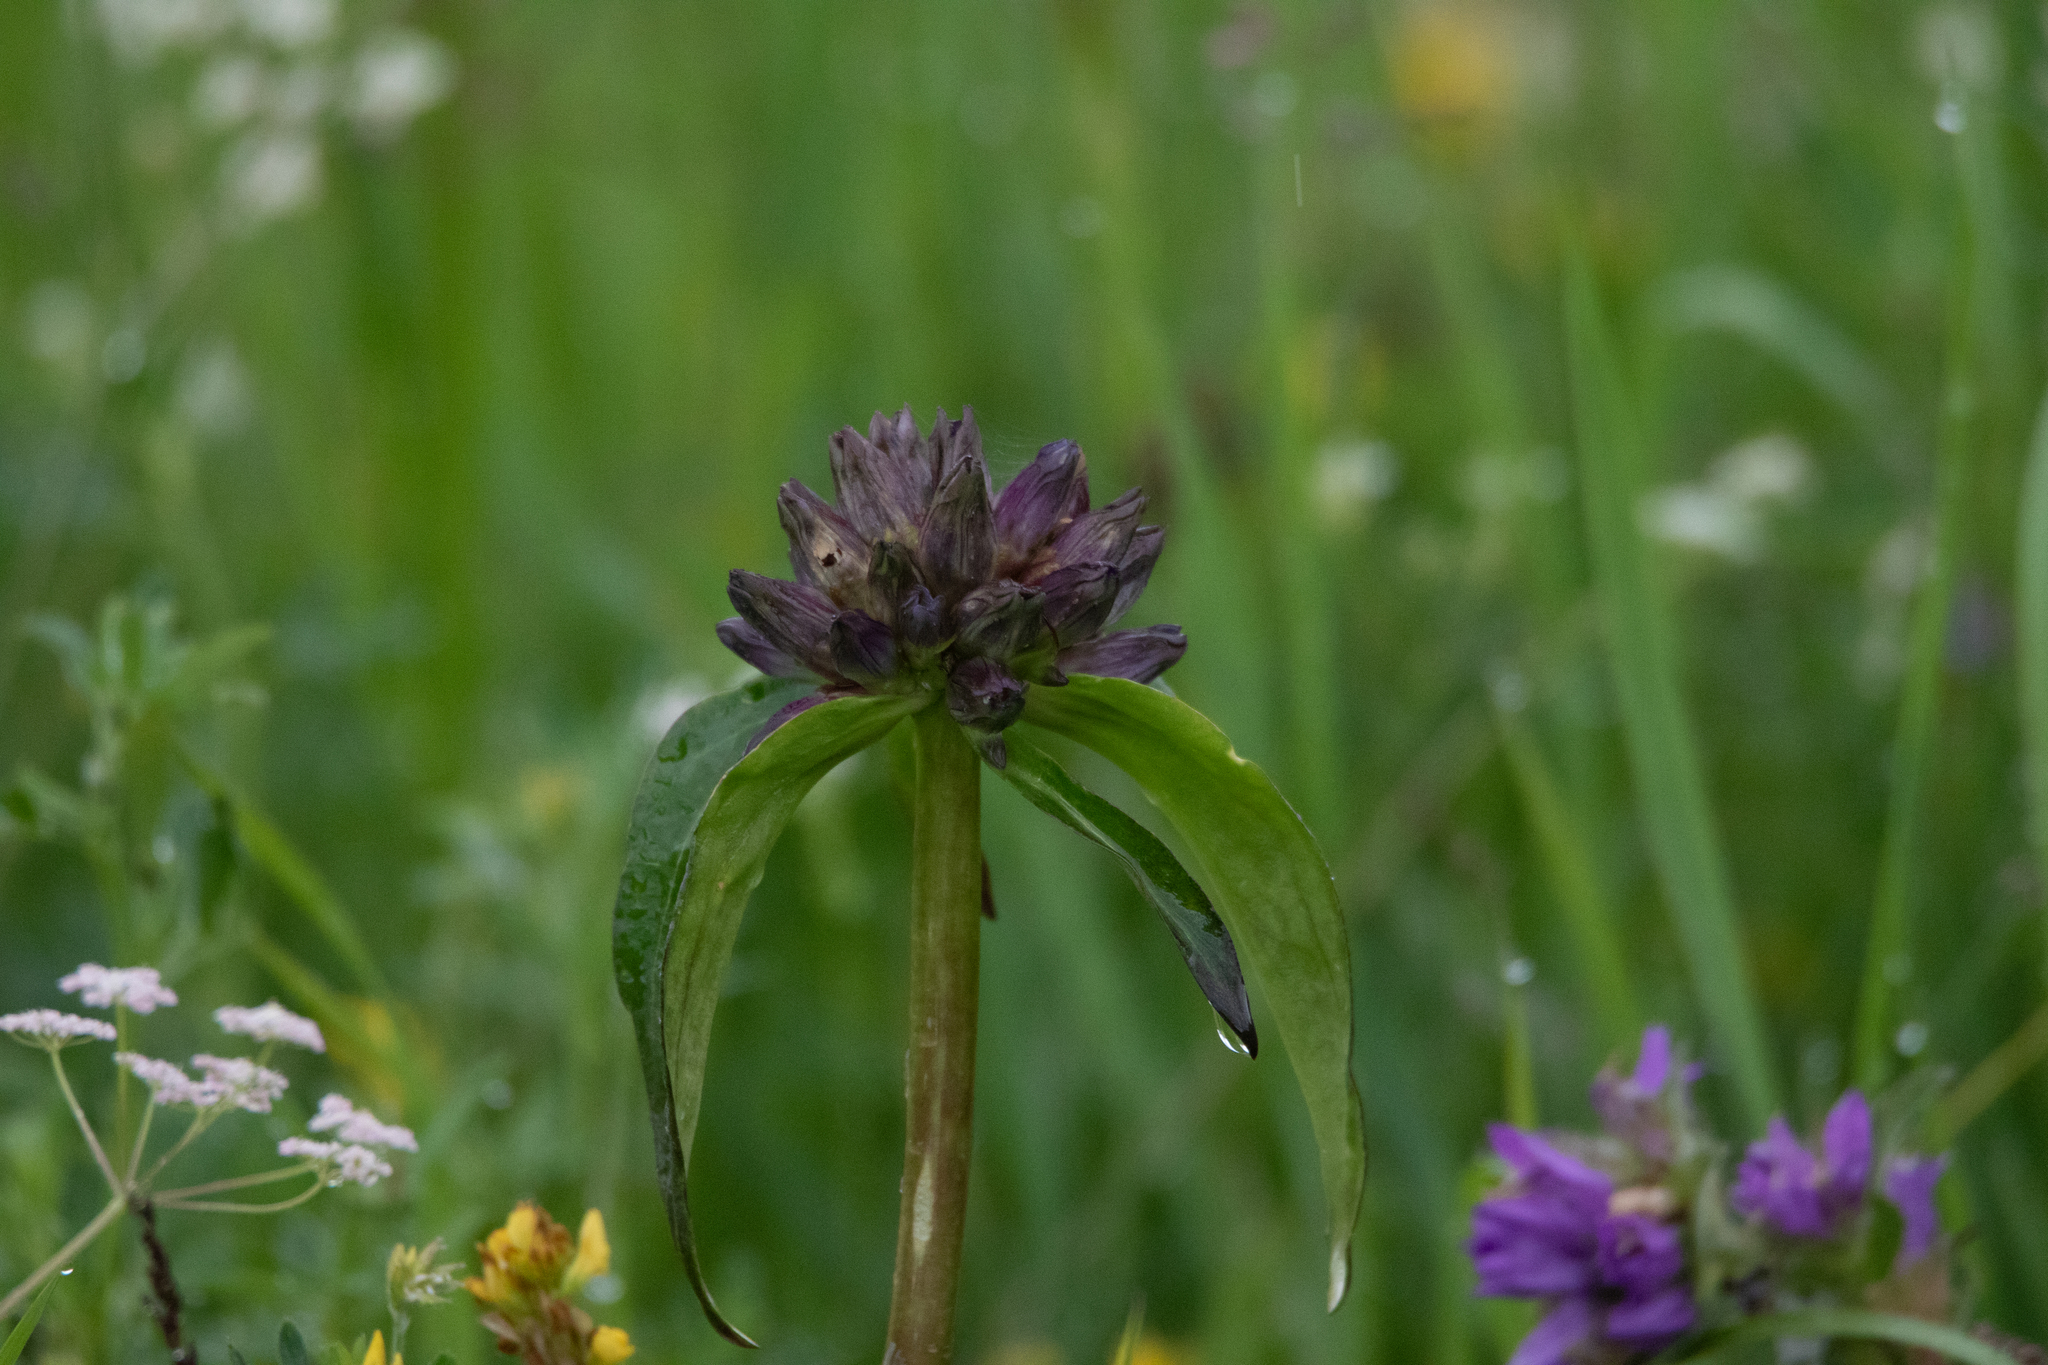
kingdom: Plantae
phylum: Tracheophyta
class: Magnoliopsida
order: Gentianales
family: Gentianaceae
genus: Gentiana
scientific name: Gentiana macrophylla
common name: Large-leaf gentian
